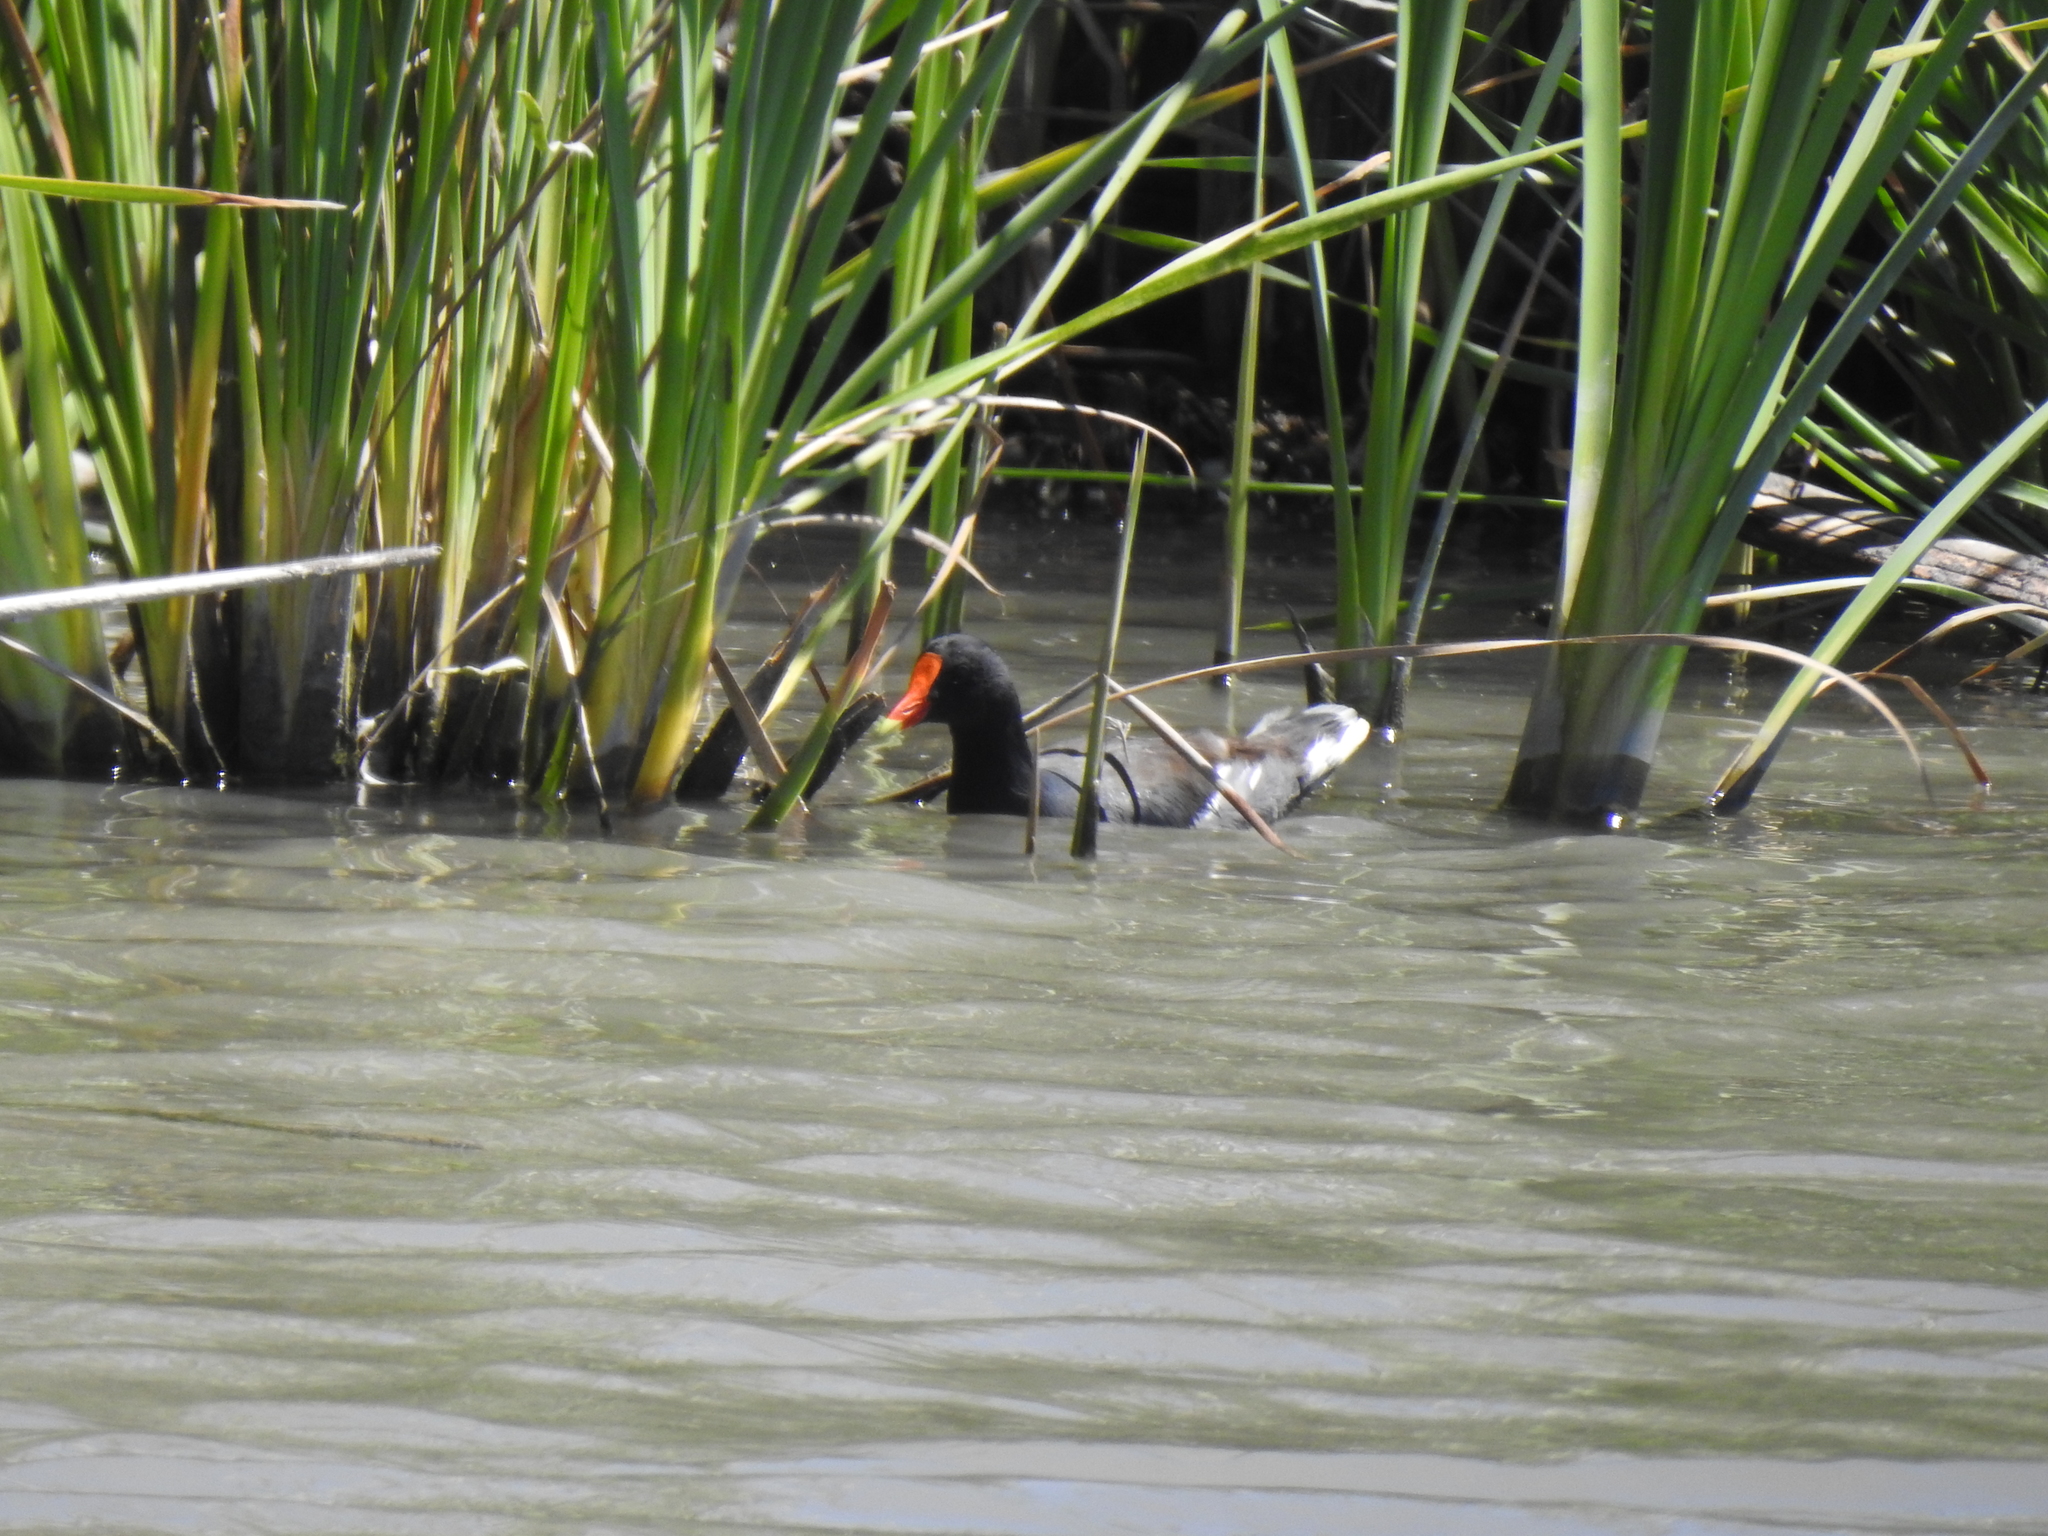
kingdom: Animalia
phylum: Chordata
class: Aves
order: Gruiformes
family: Rallidae
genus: Gallinula
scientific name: Gallinula chloropus
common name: Common moorhen
